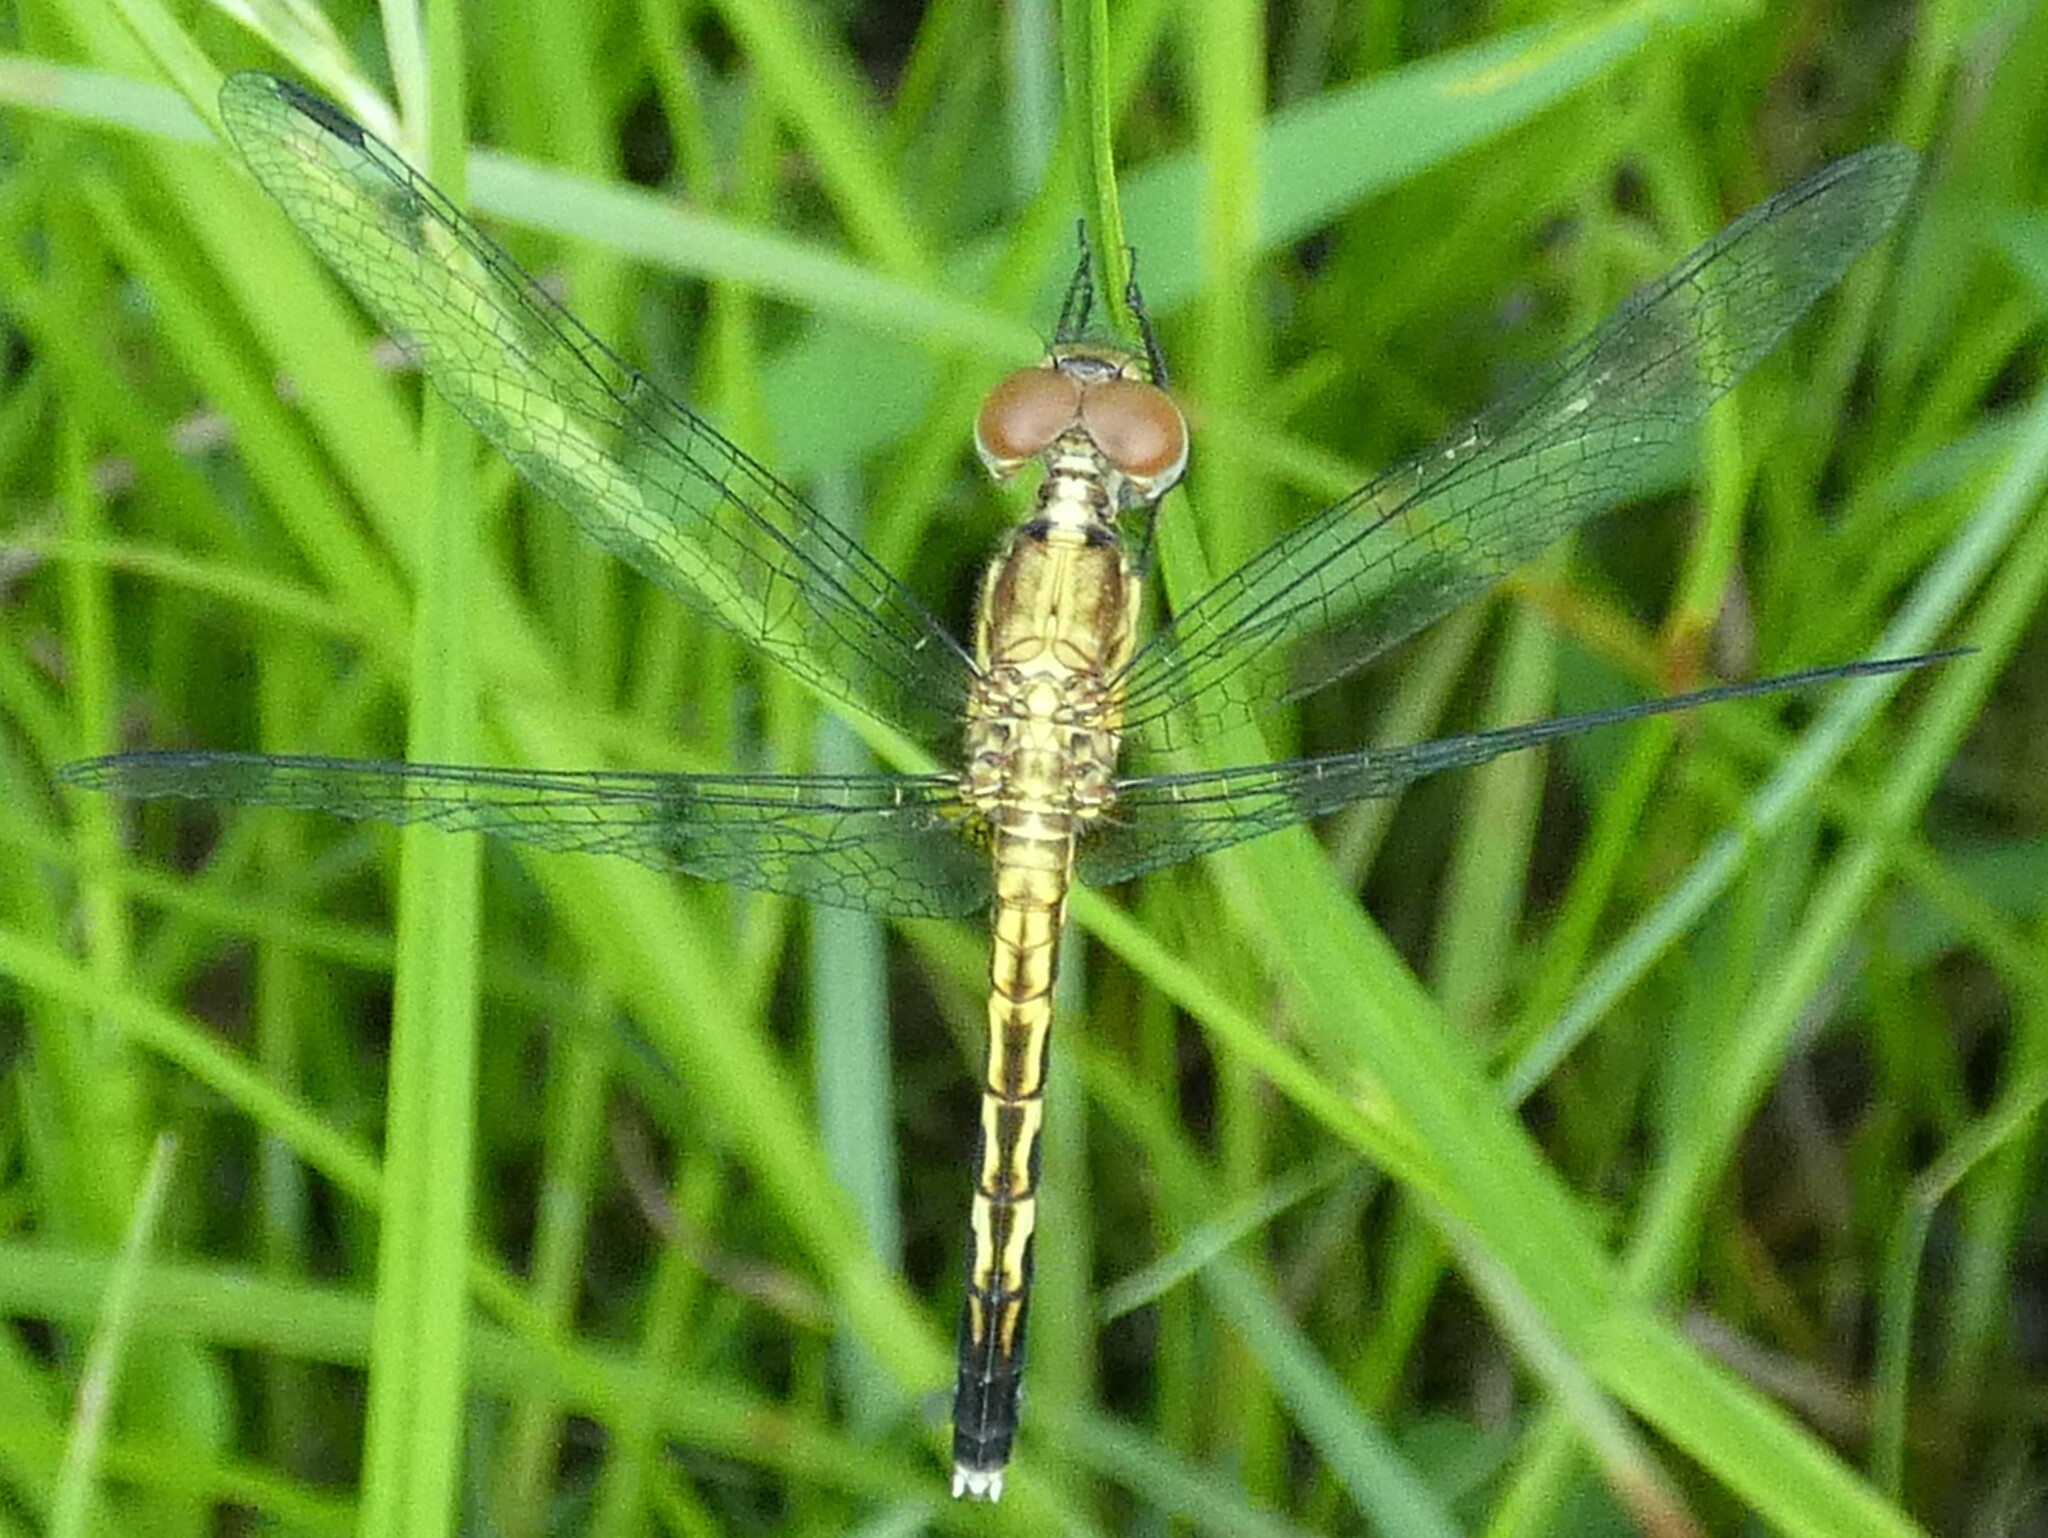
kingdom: Animalia
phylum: Arthropoda
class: Insecta
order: Odonata
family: Libellulidae
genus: Erythrodiplax
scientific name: Erythrodiplax minuscula
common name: Little blue dragonlet
